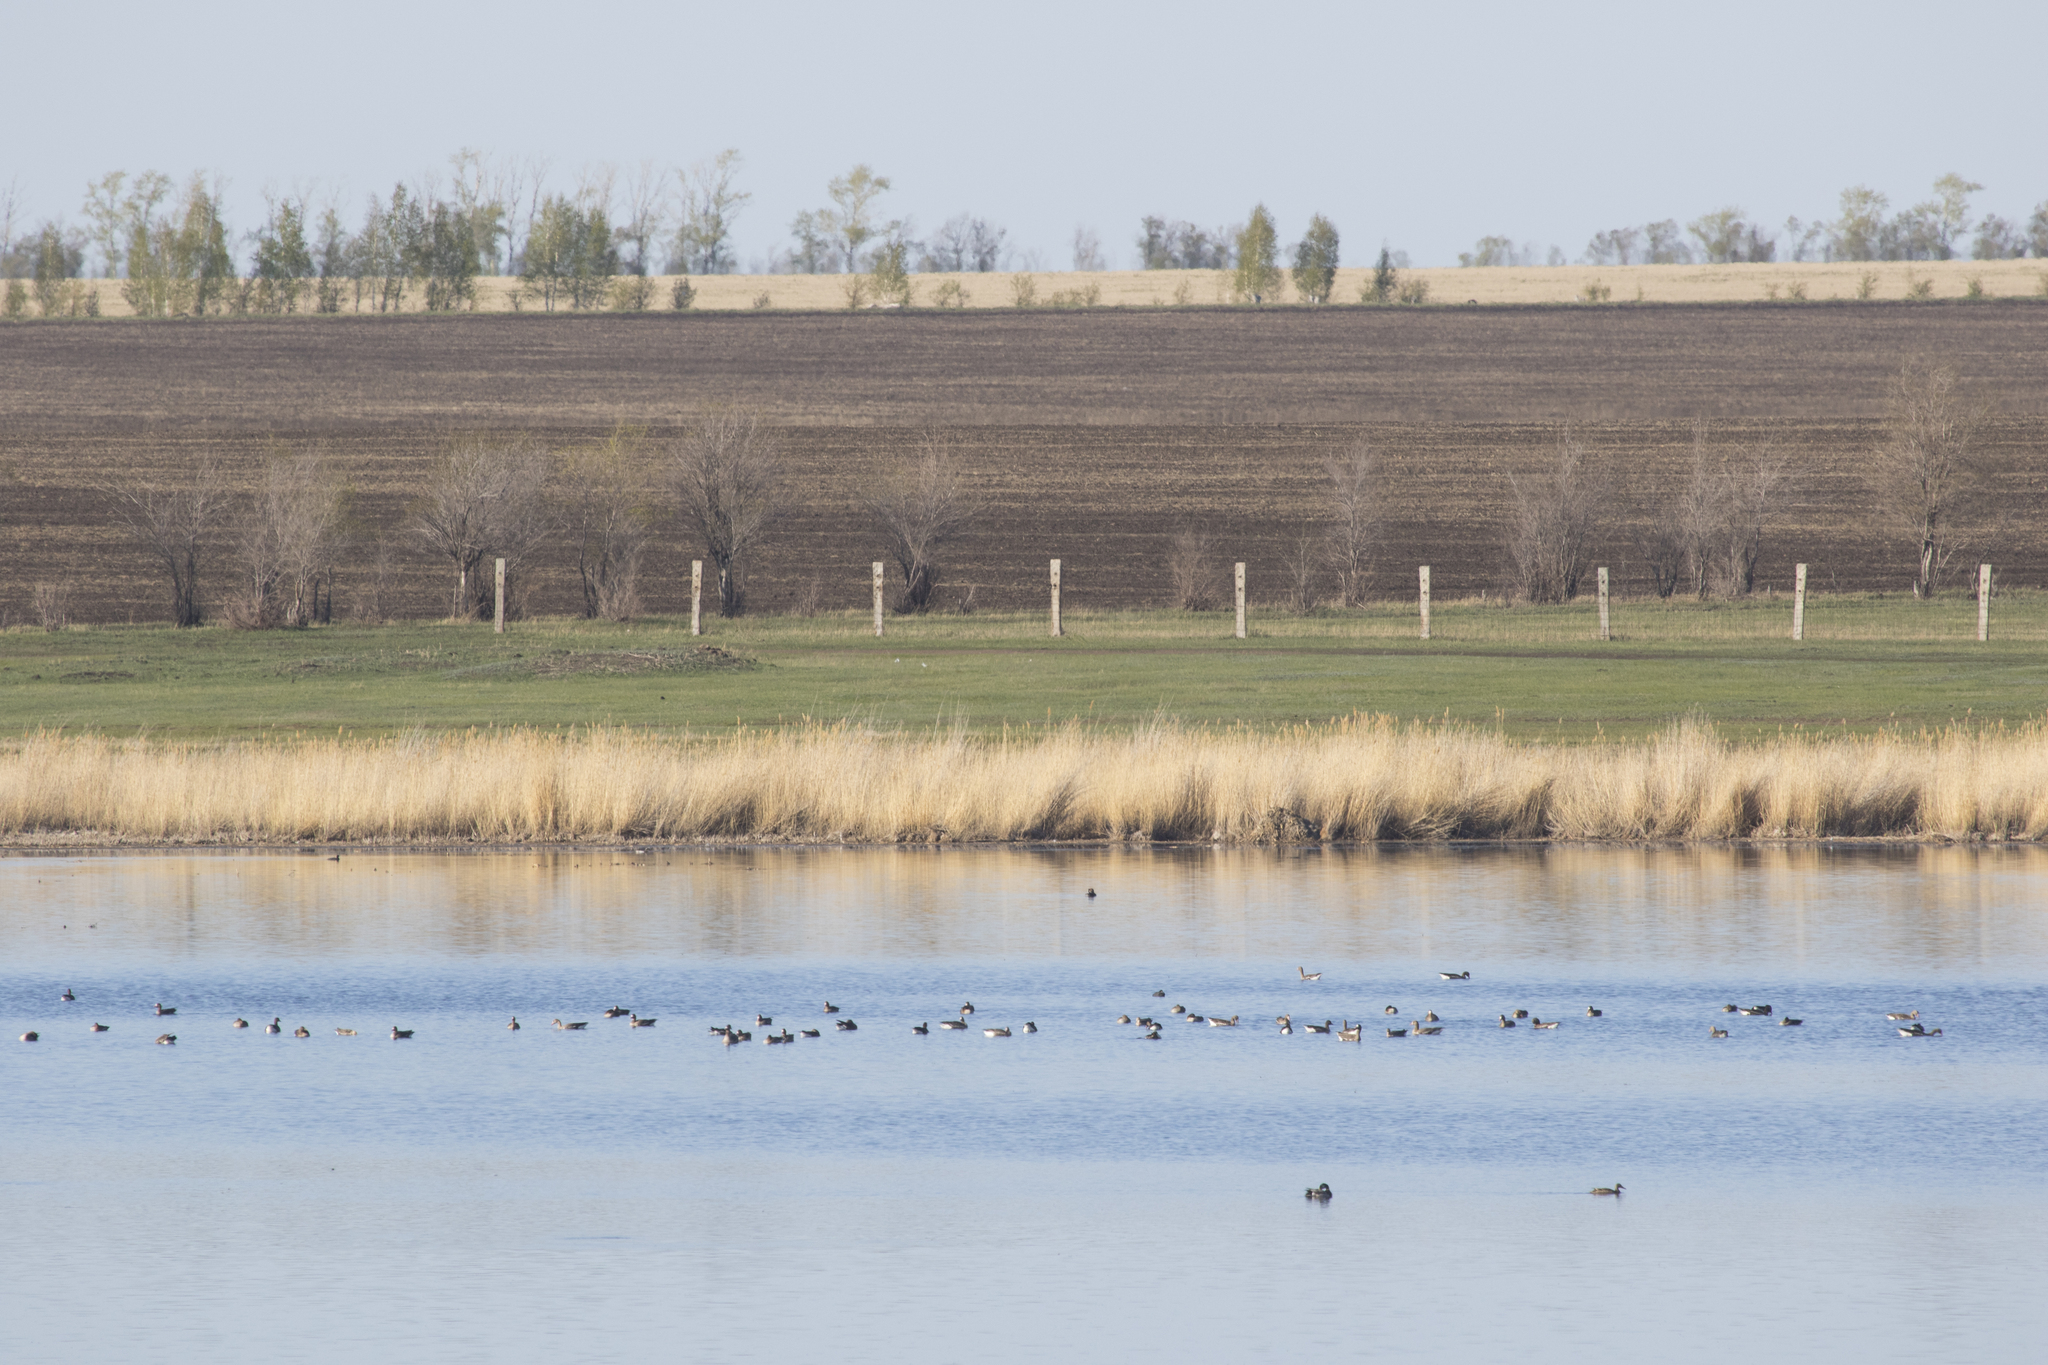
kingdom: Animalia
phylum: Chordata
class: Aves
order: Anseriformes
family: Anatidae
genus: Anas
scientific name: Anas platyrhynchos
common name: Mallard
